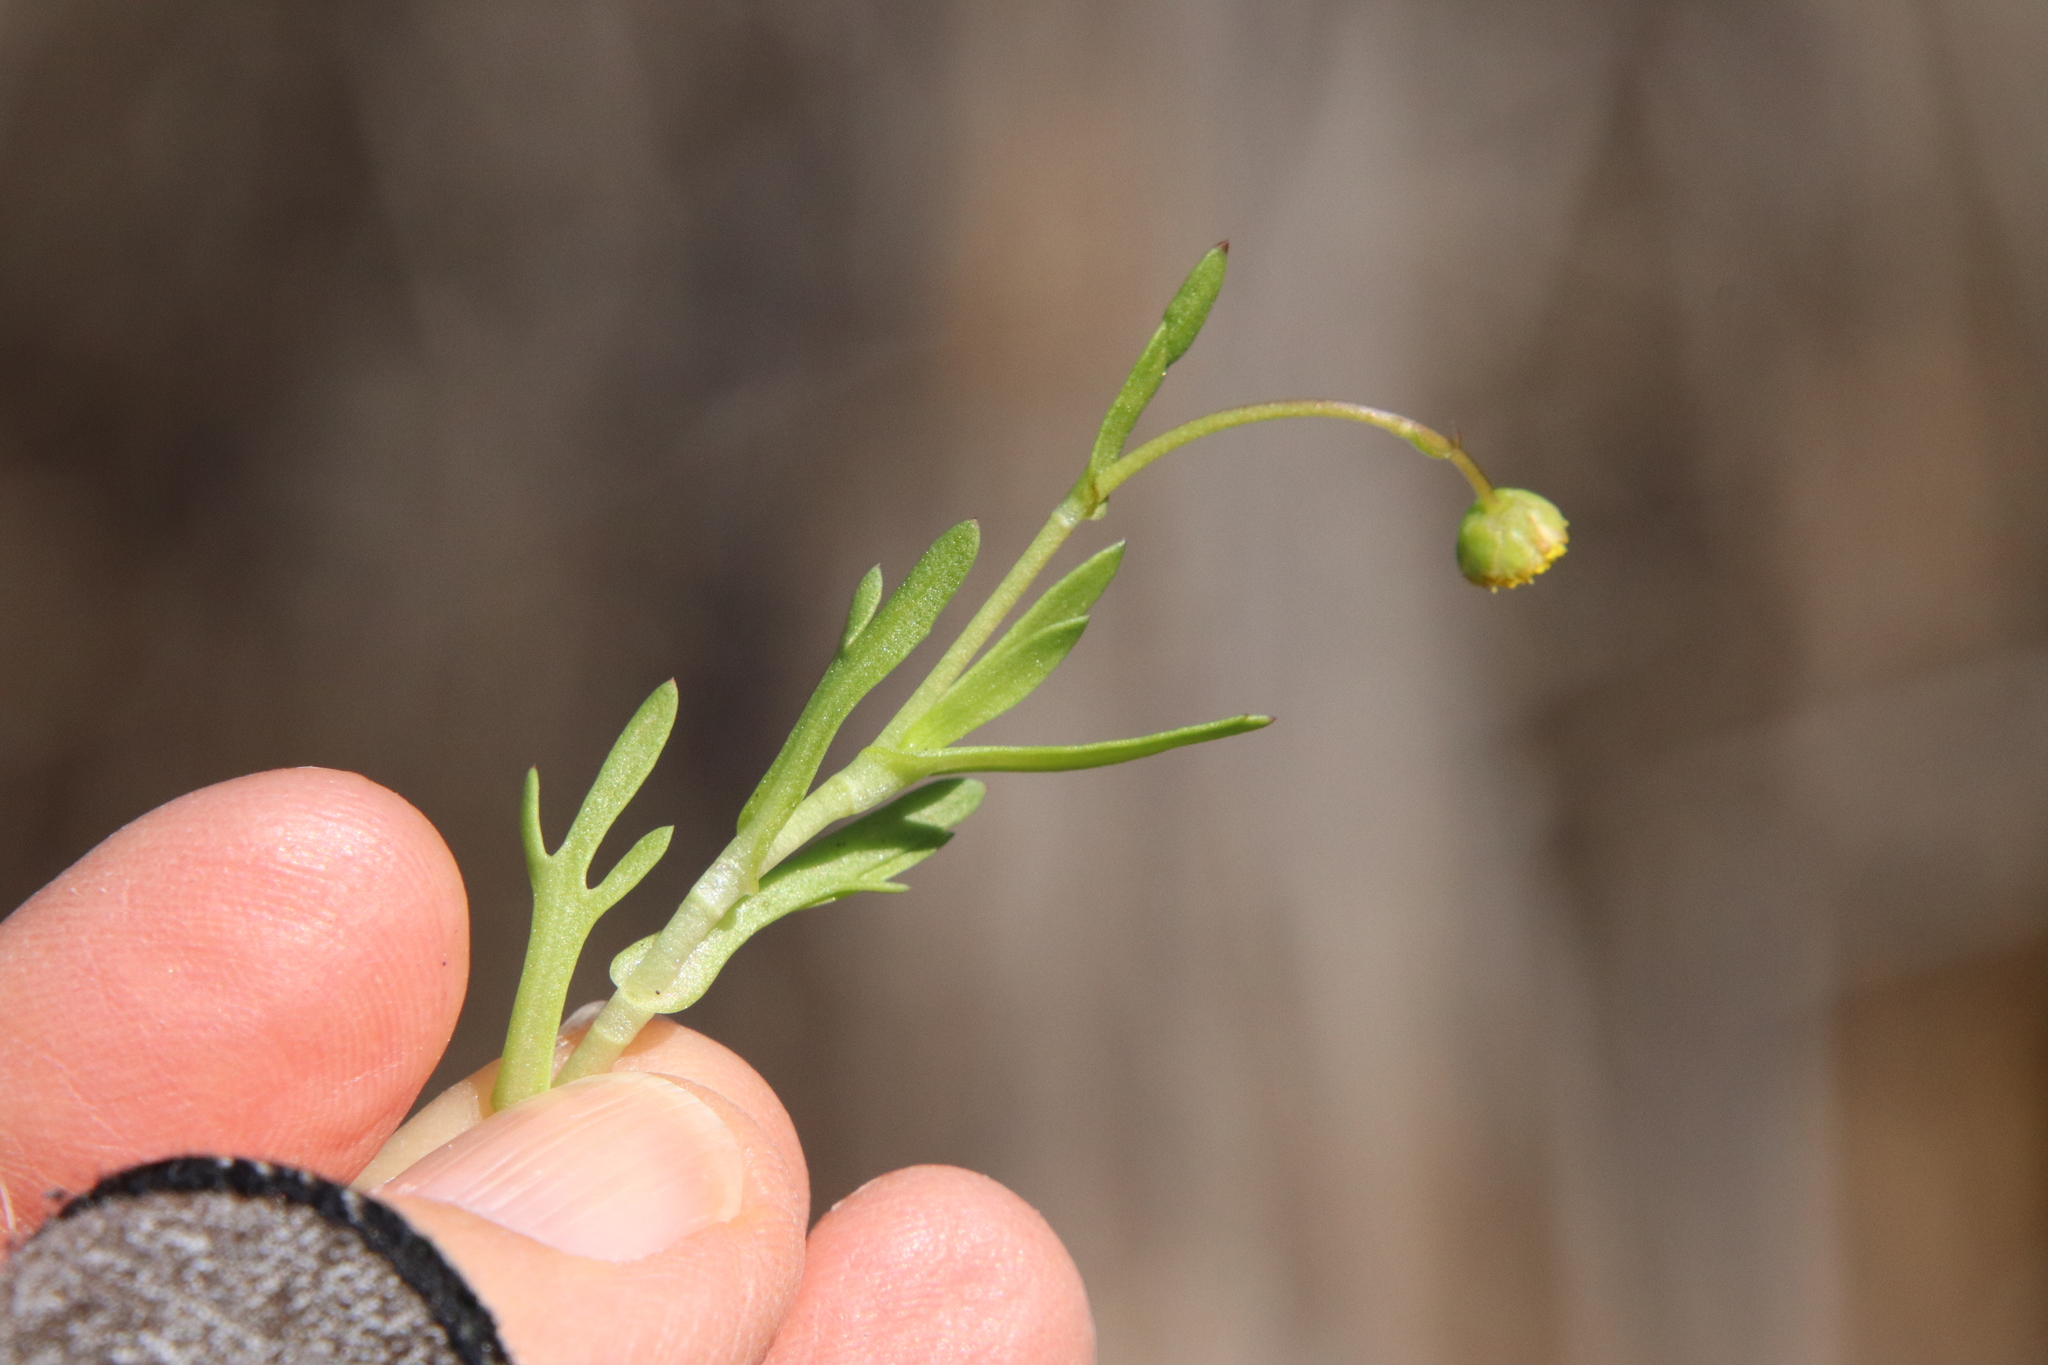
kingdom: Plantae
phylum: Tracheophyta
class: Magnoliopsida
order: Asterales
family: Asteraceae
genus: Cotula
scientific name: Cotula coronopifolia
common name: Buttonweed
